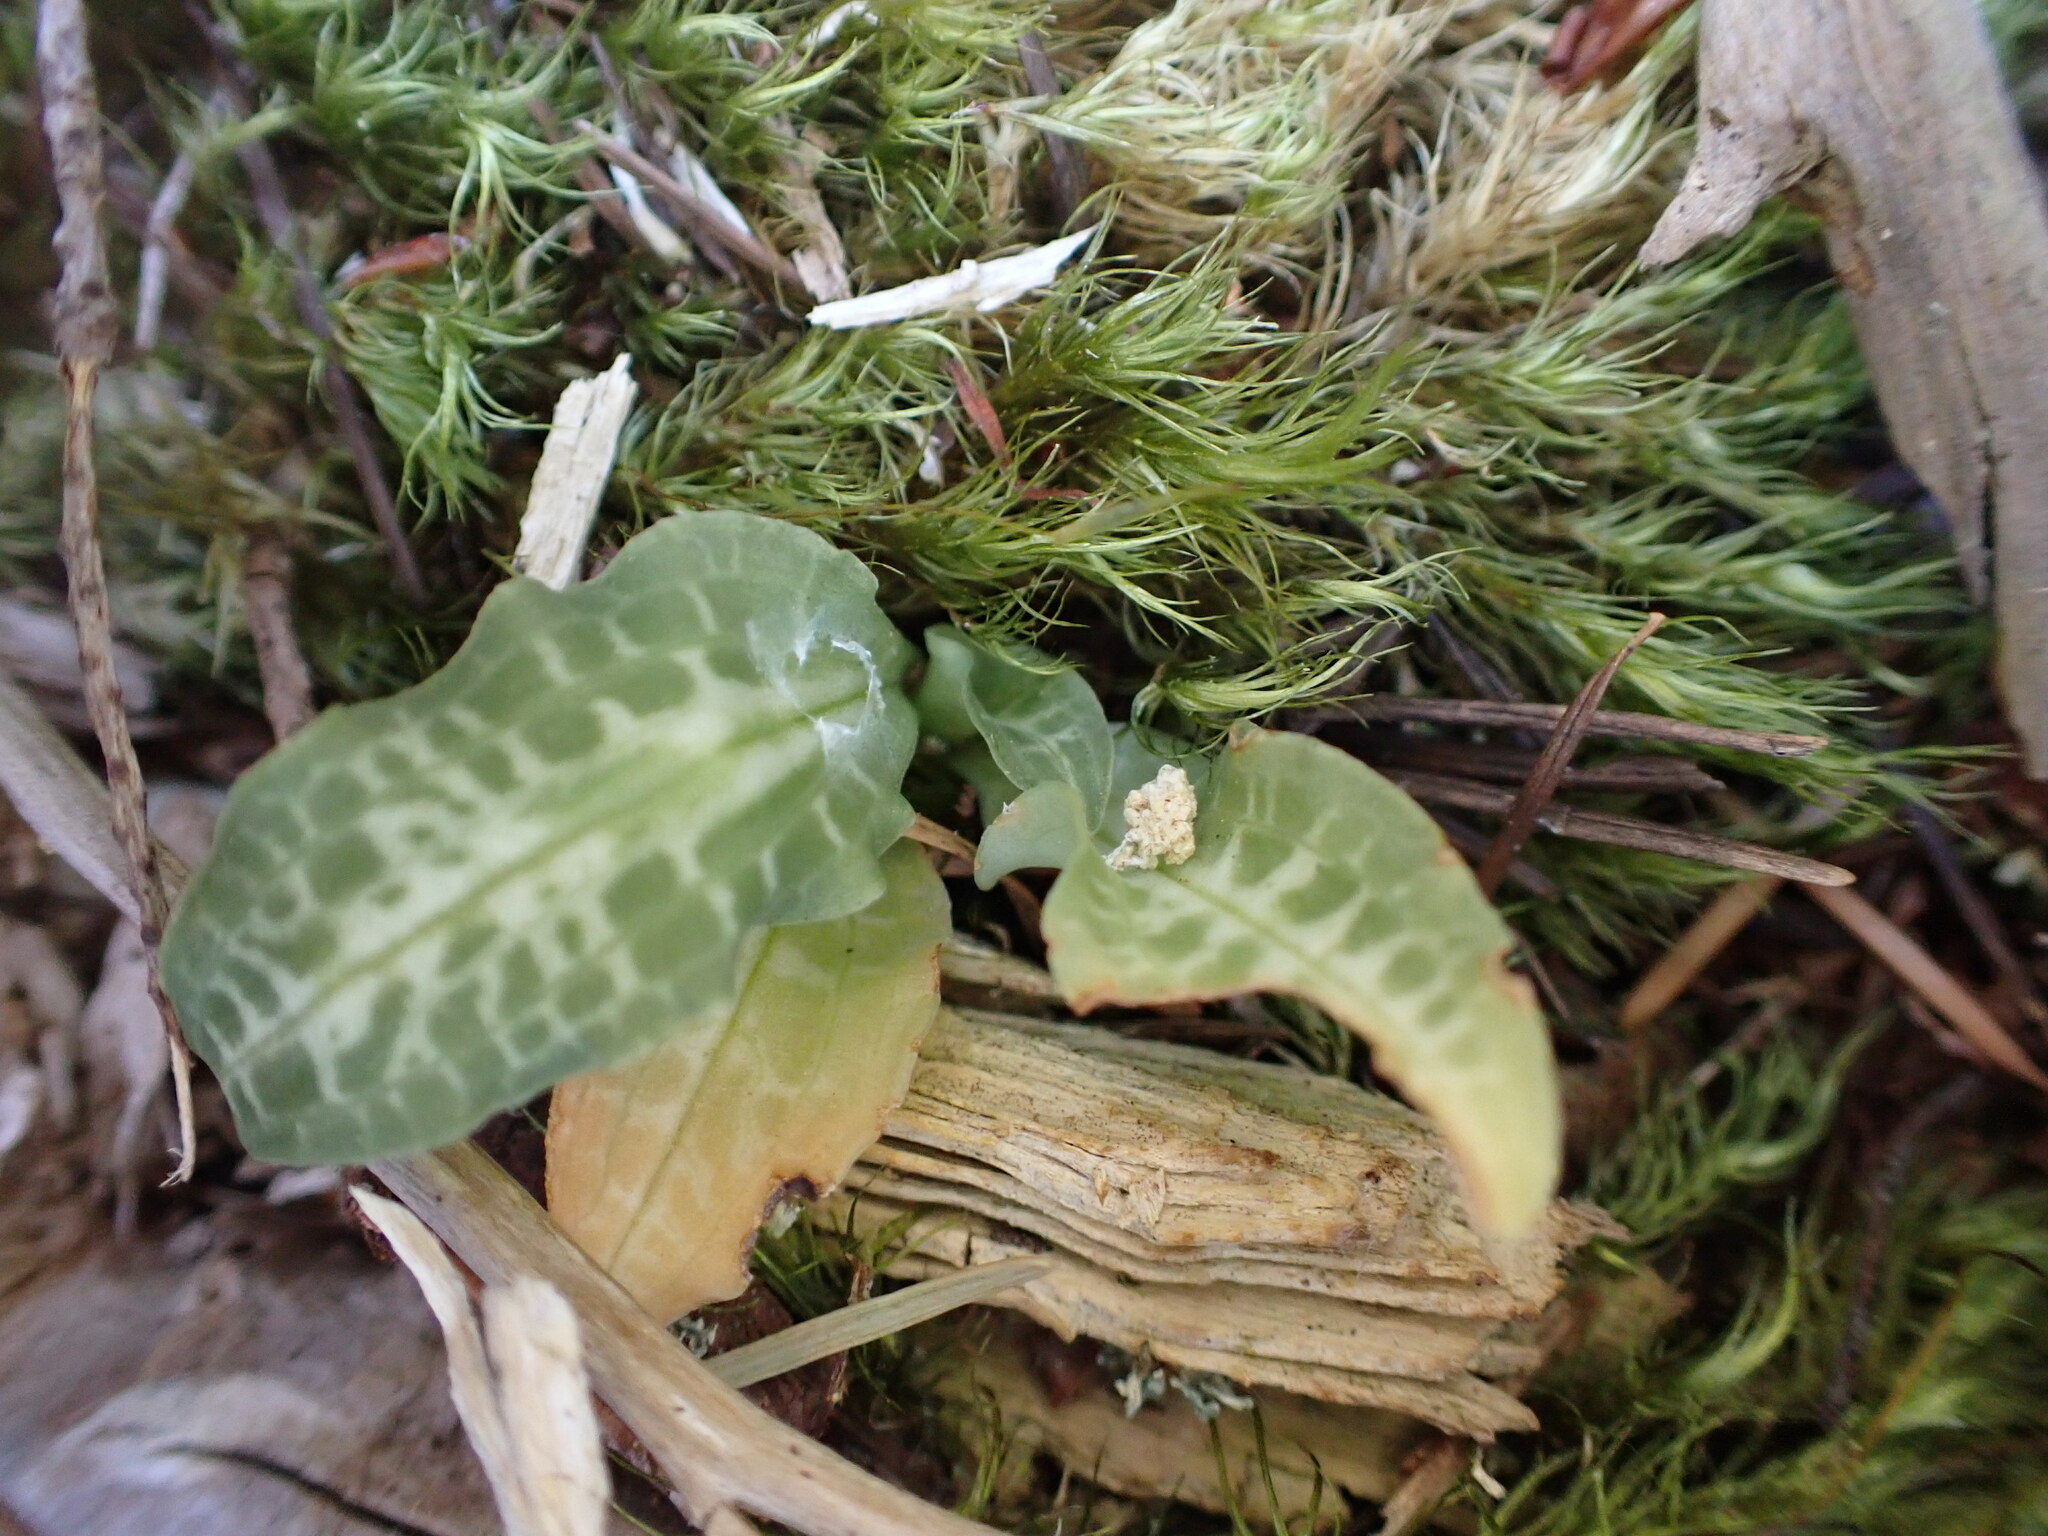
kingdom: Plantae
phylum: Tracheophyta
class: Liliopsida
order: Asparagales
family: Orchidaceae
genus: Goodyera
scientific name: Goodyera oblongifolia
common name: Giant rattlesnake-plantain
